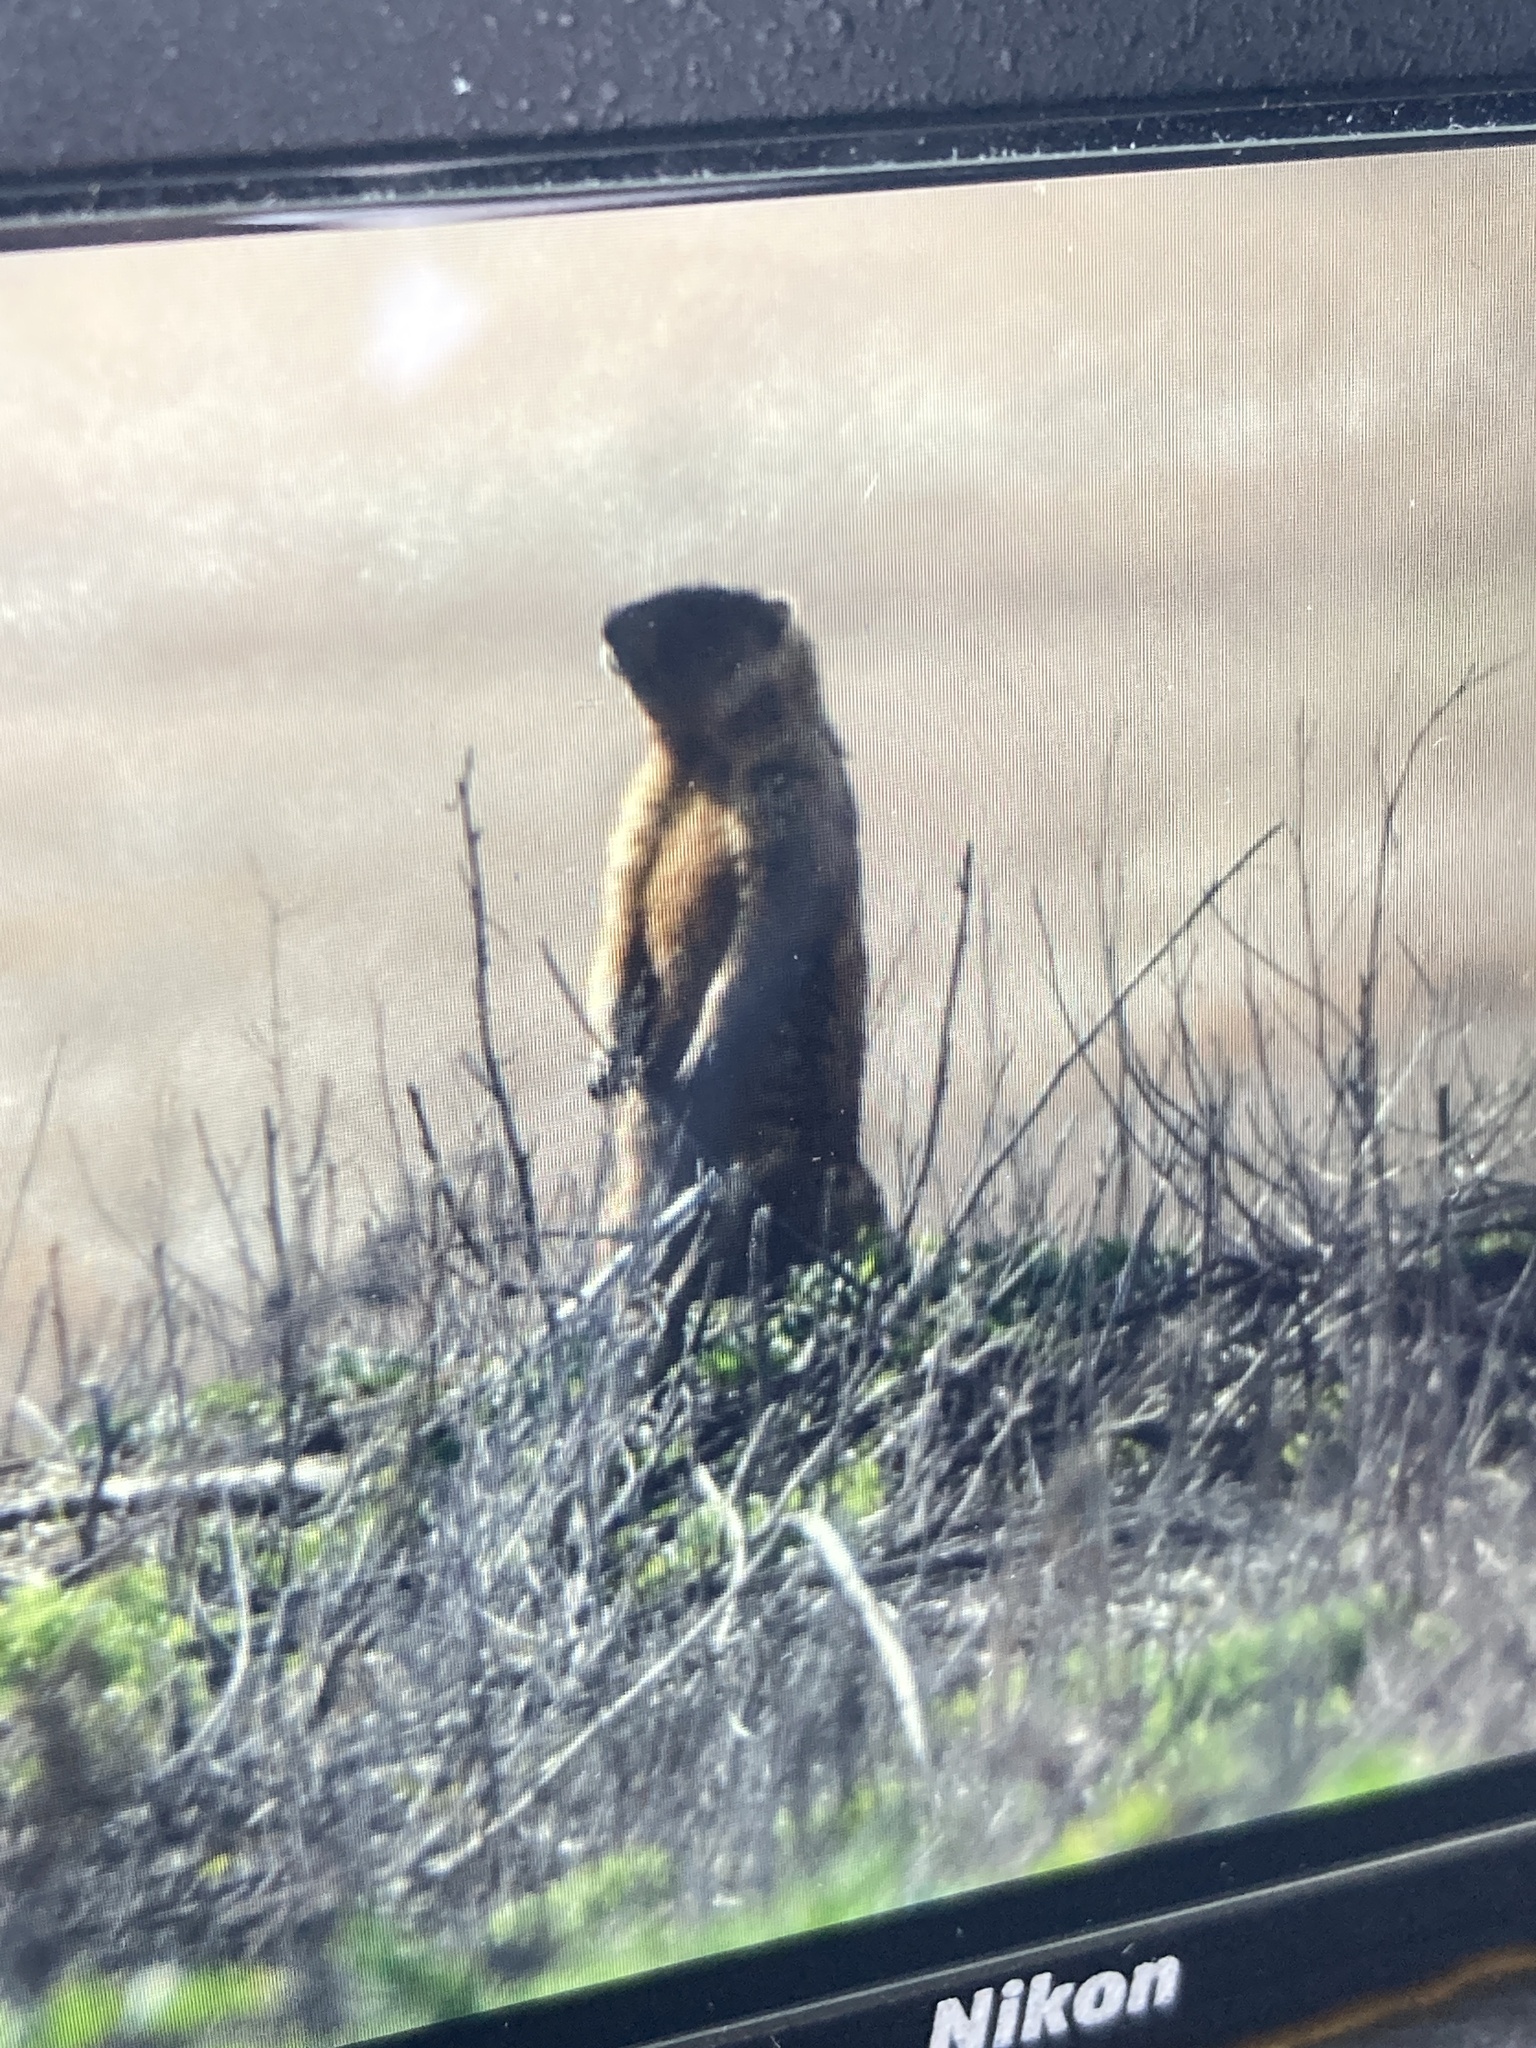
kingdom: Animalia
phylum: Chordata
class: Mammalia
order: Rodentia
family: Sciuridae
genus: Marmota
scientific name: Marmota bobak
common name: Bobak marmot
